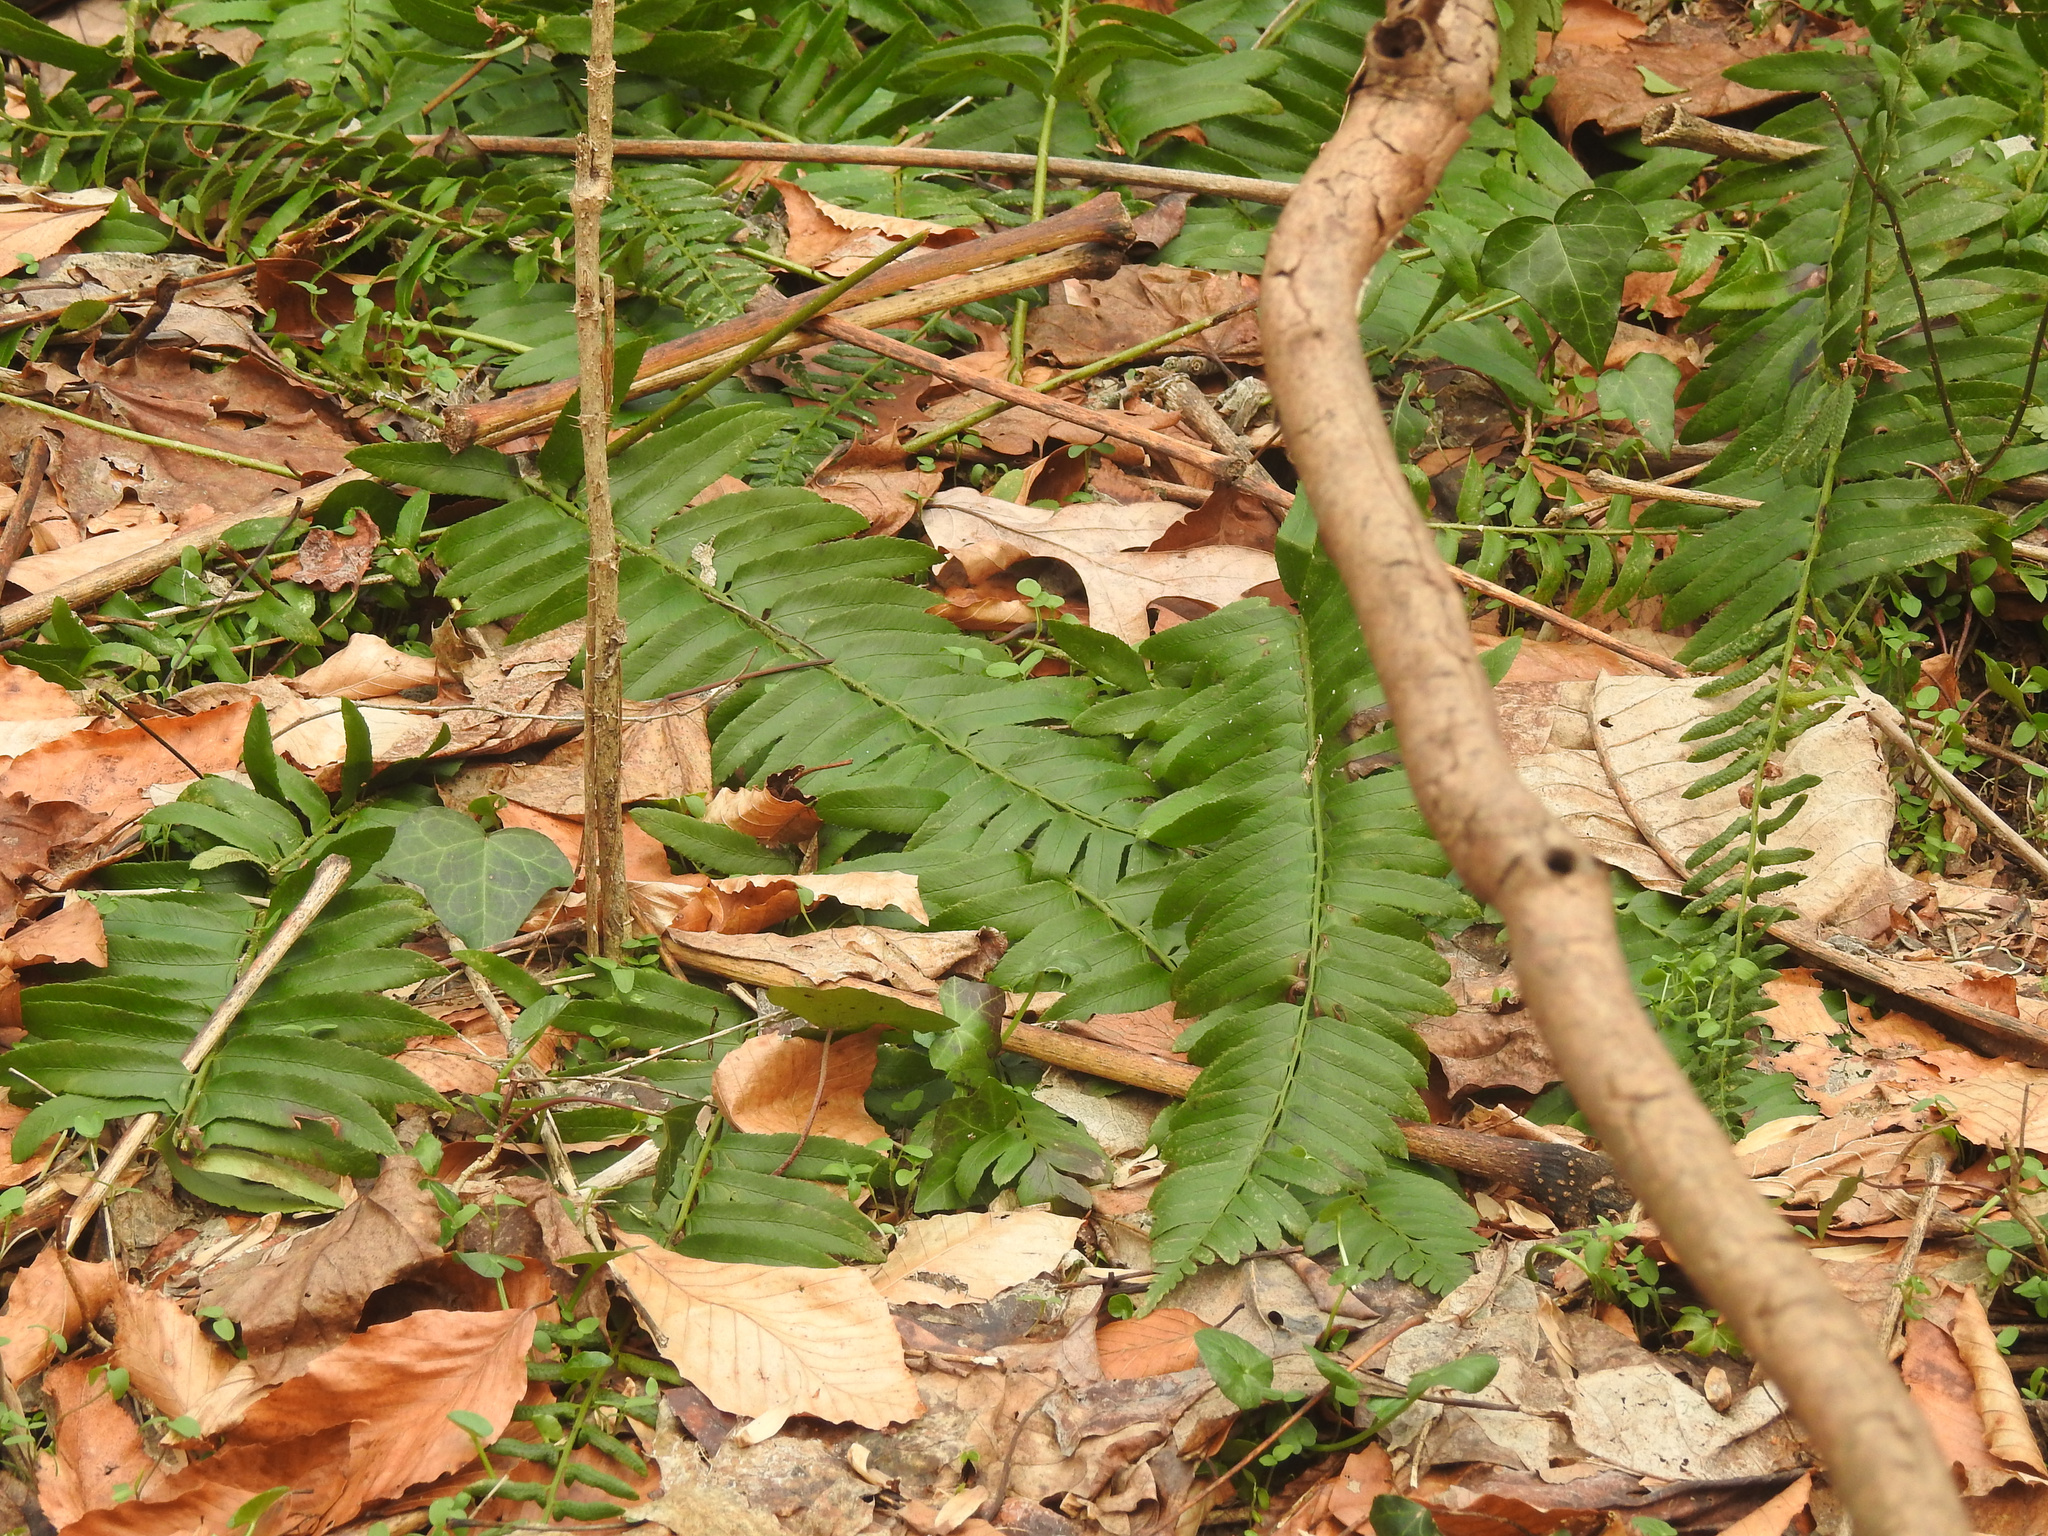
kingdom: Plantae
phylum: Tracheophyta
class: Polypodiopsida
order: Polypodiales
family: Dryopteridaceae
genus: Polystichum
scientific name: Polystichum acrostichoides
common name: Christmas fern
